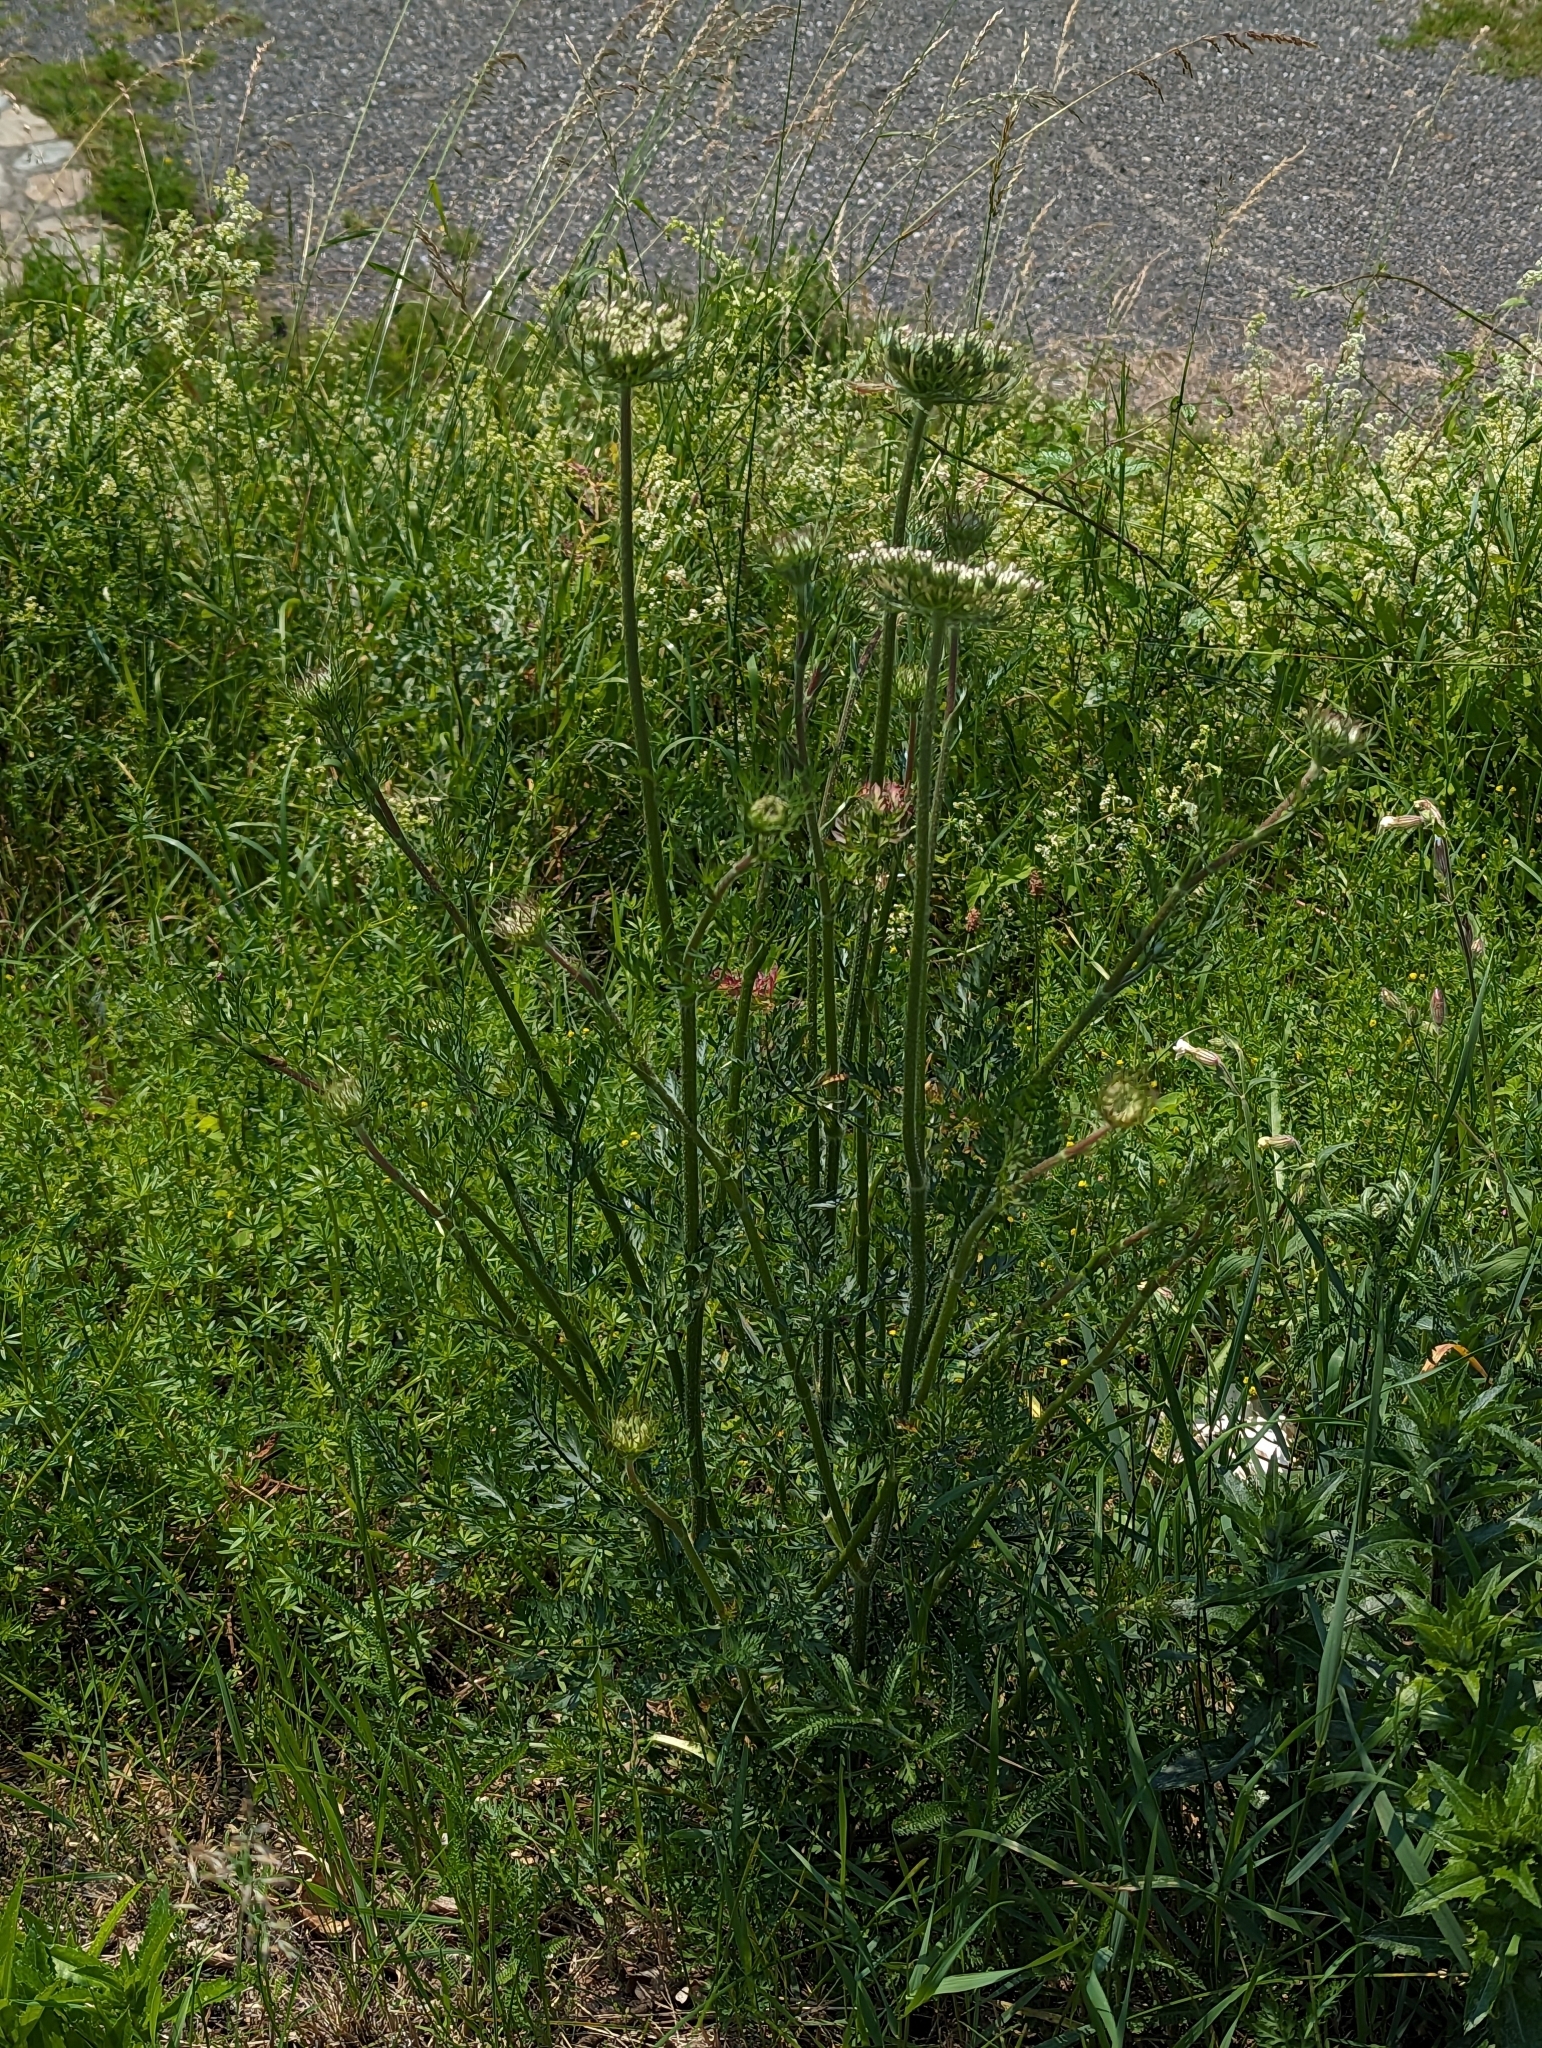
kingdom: Plantae
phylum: Tracheophyta
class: Magnoliopsida
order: Apiales
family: Apiaceae
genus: Daucus
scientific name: Daucus carota
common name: Wild carrot
